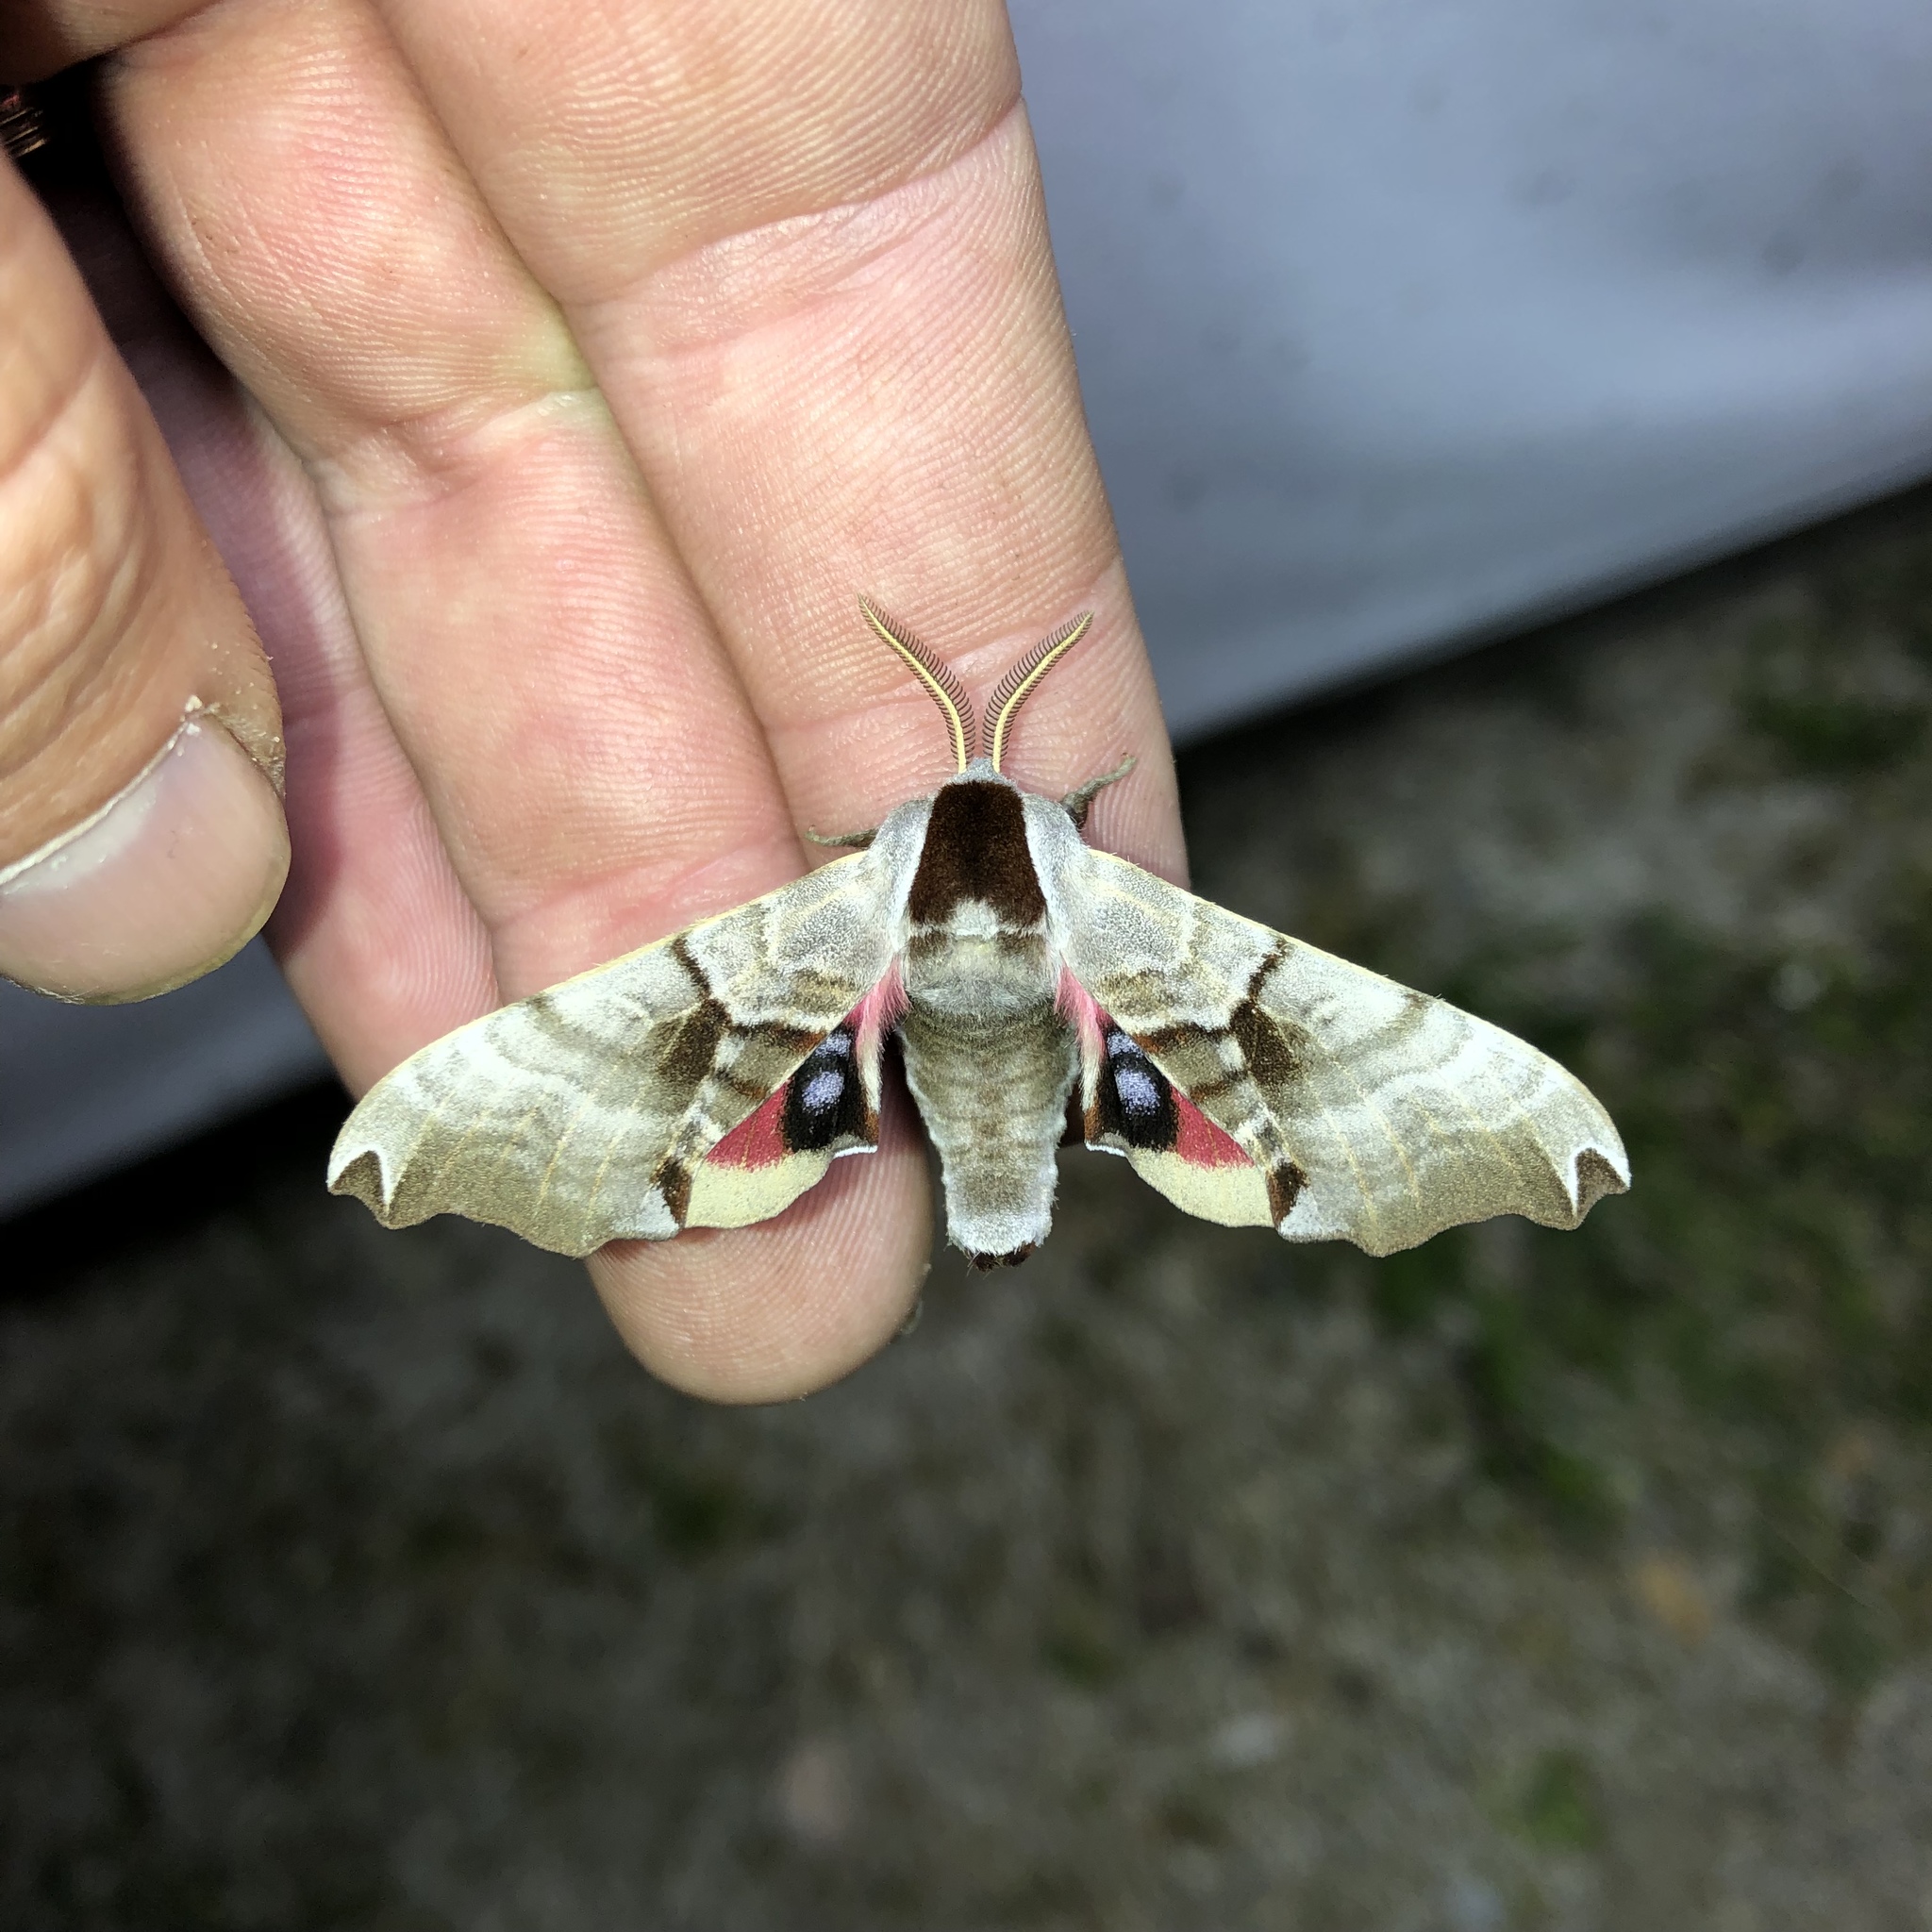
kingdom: Animalia
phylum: Arthropoda
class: Insecta
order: Lepidoptera
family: Sphingidae
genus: Smerinthus
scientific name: Smerinthus jamaicensis
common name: Twin spotted sphinx
